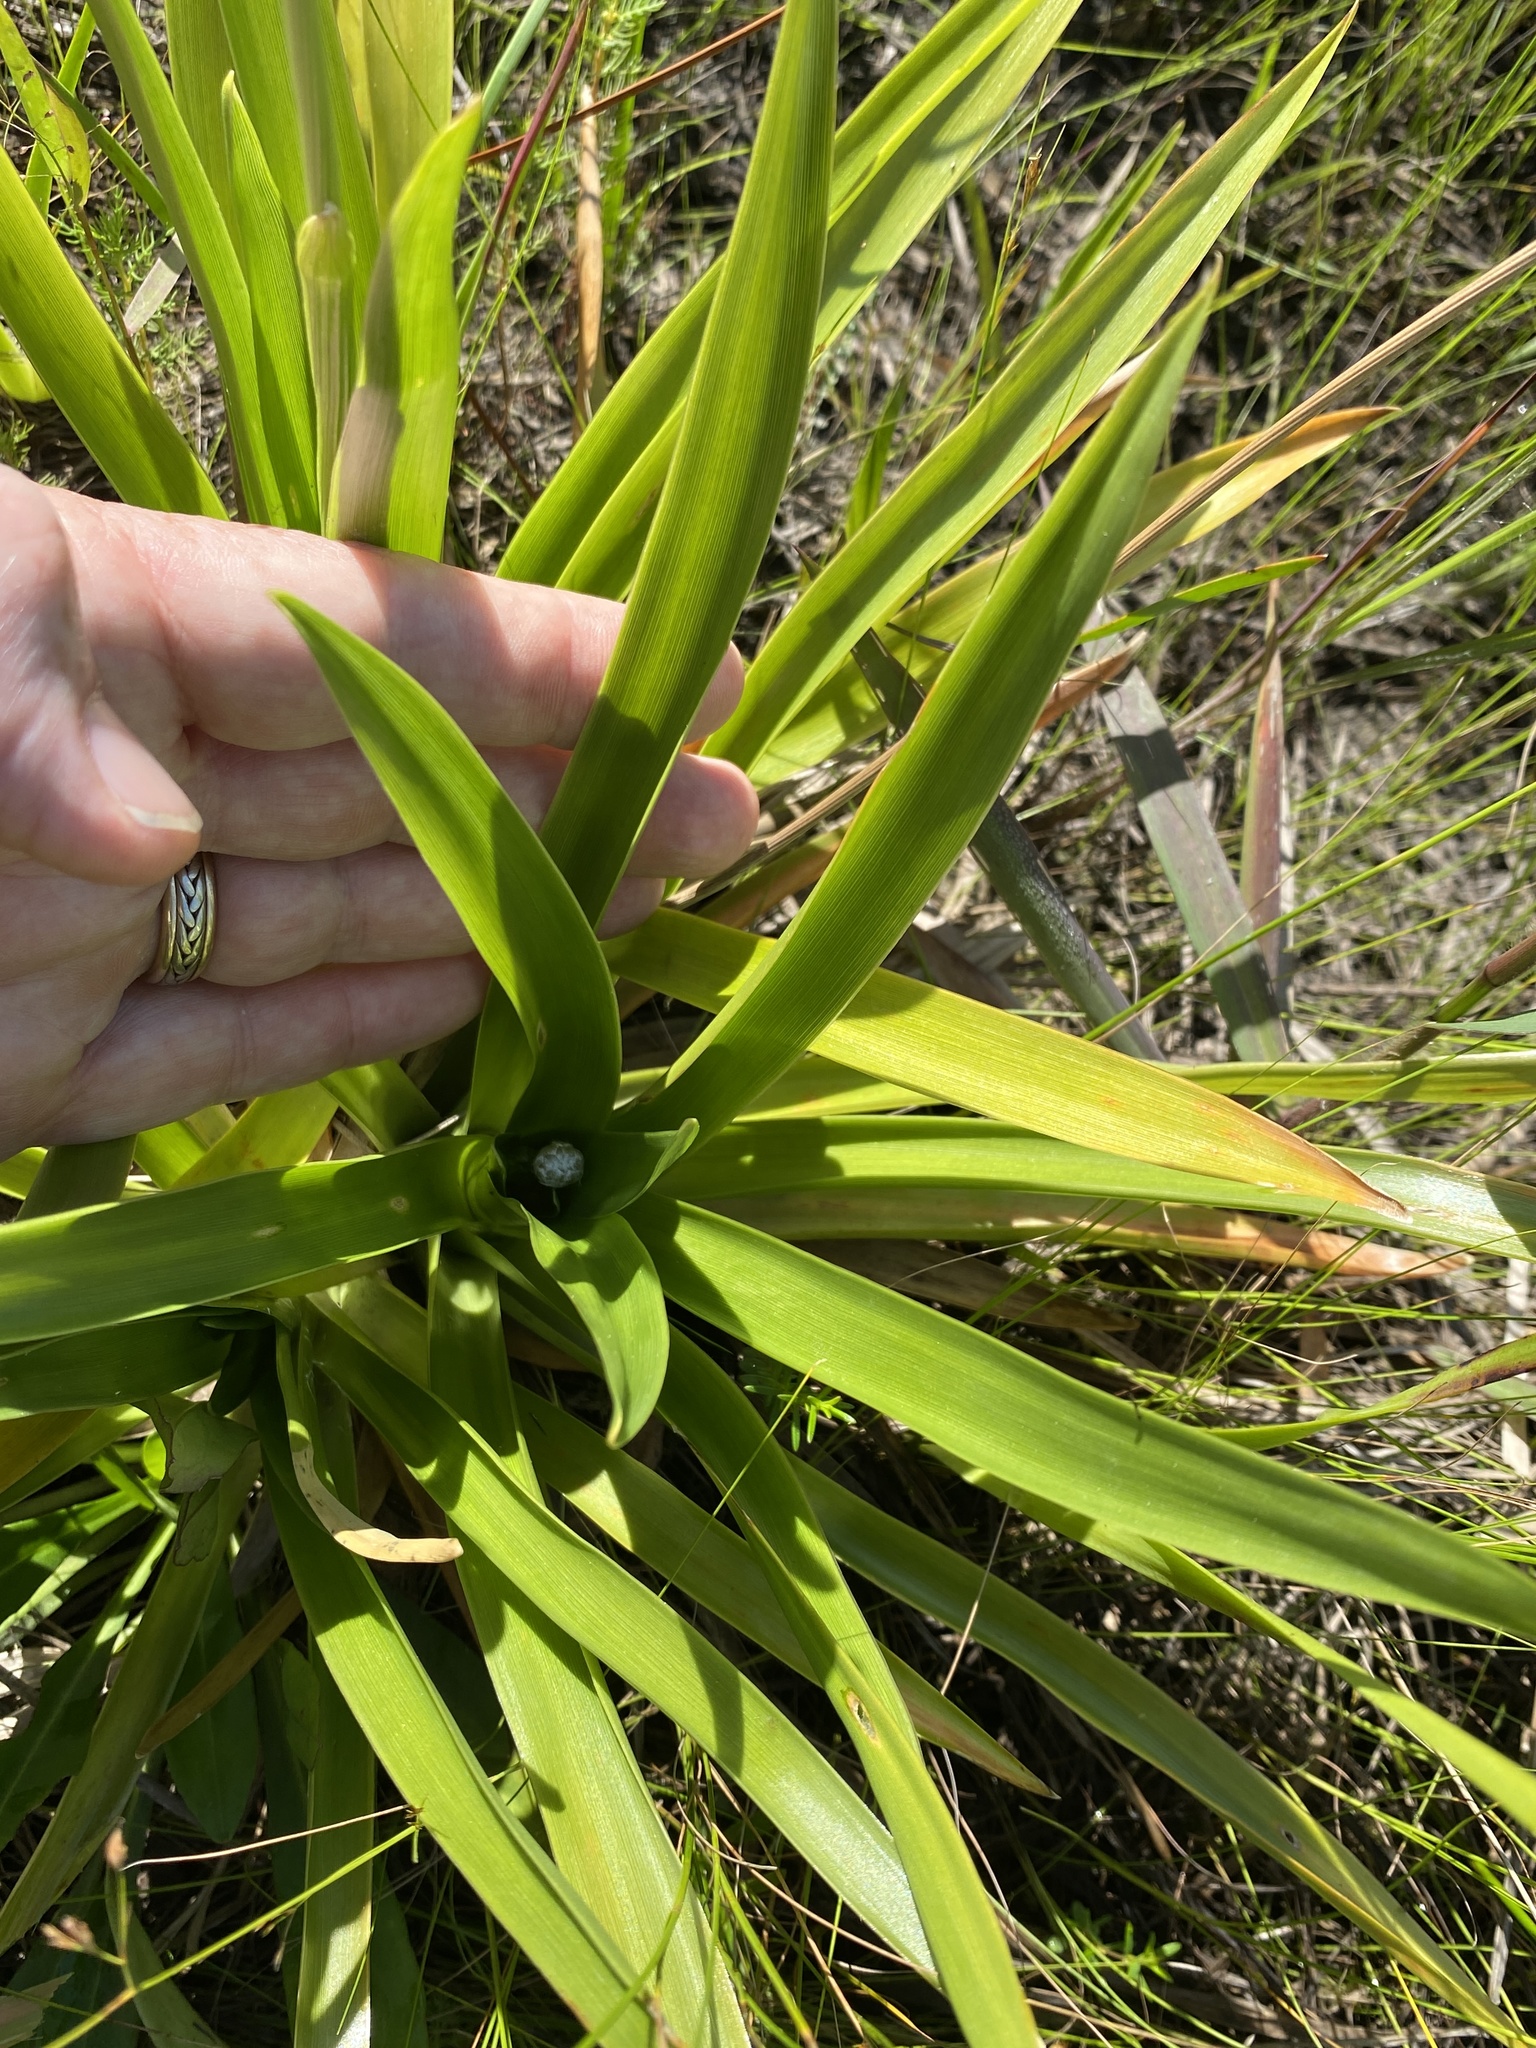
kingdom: Plantae
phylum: Tracheophyta
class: Liliopsida
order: Poales
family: Eriocaulaceae
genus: Eriocaulon
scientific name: Eriocaulon decangulare
